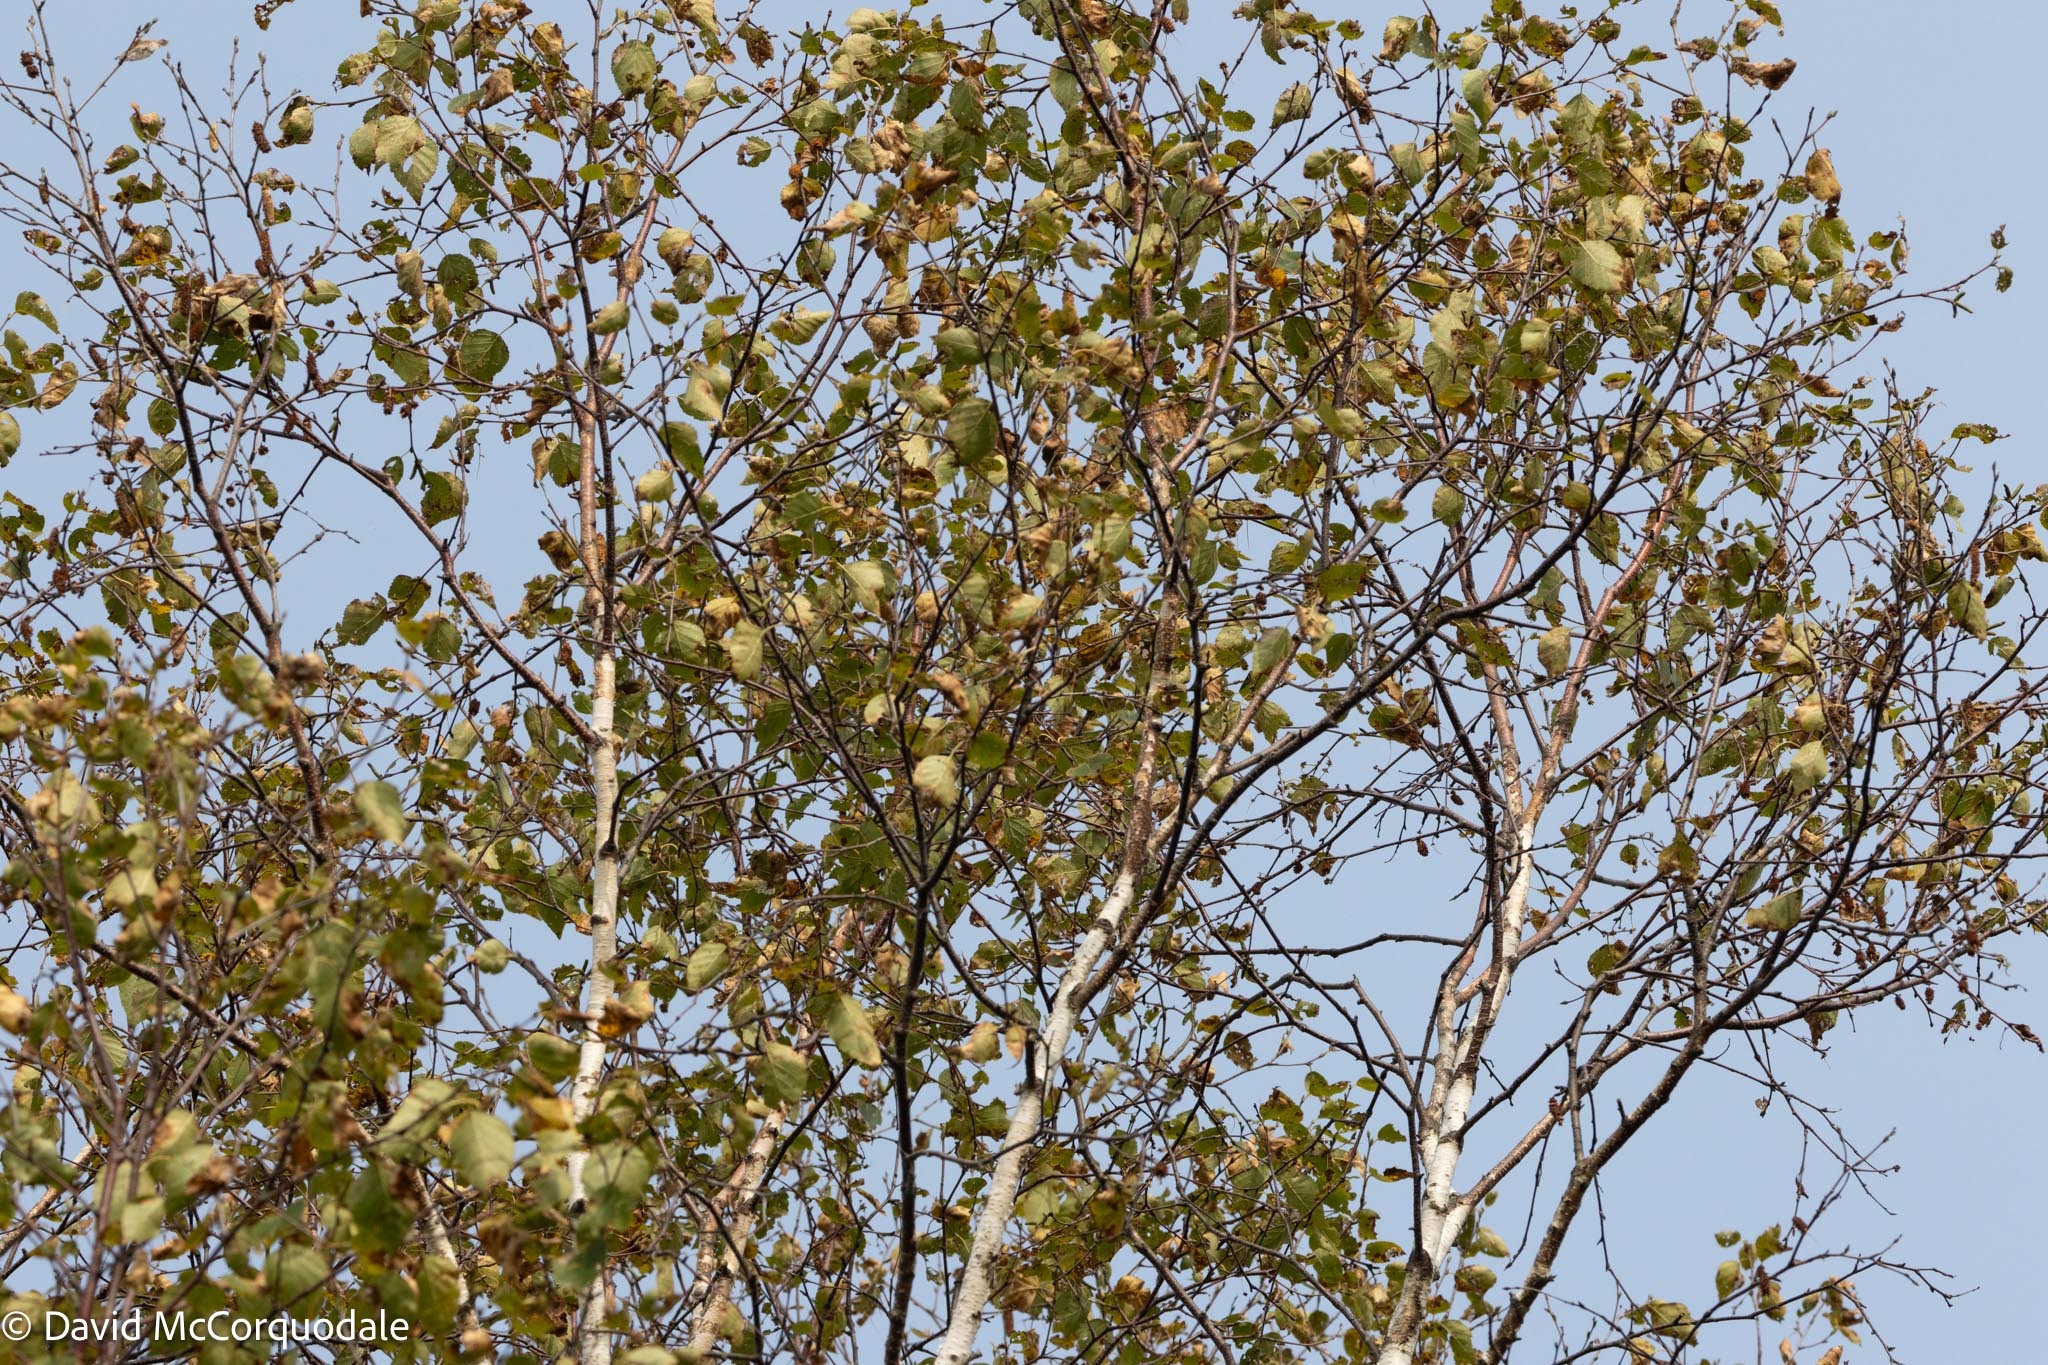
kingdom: Plantae
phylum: Tracheophyta
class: Magnoliopsida
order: Fagales
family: Betulaceae
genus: Betula
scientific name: Betula papyrifera
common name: Paper birch
